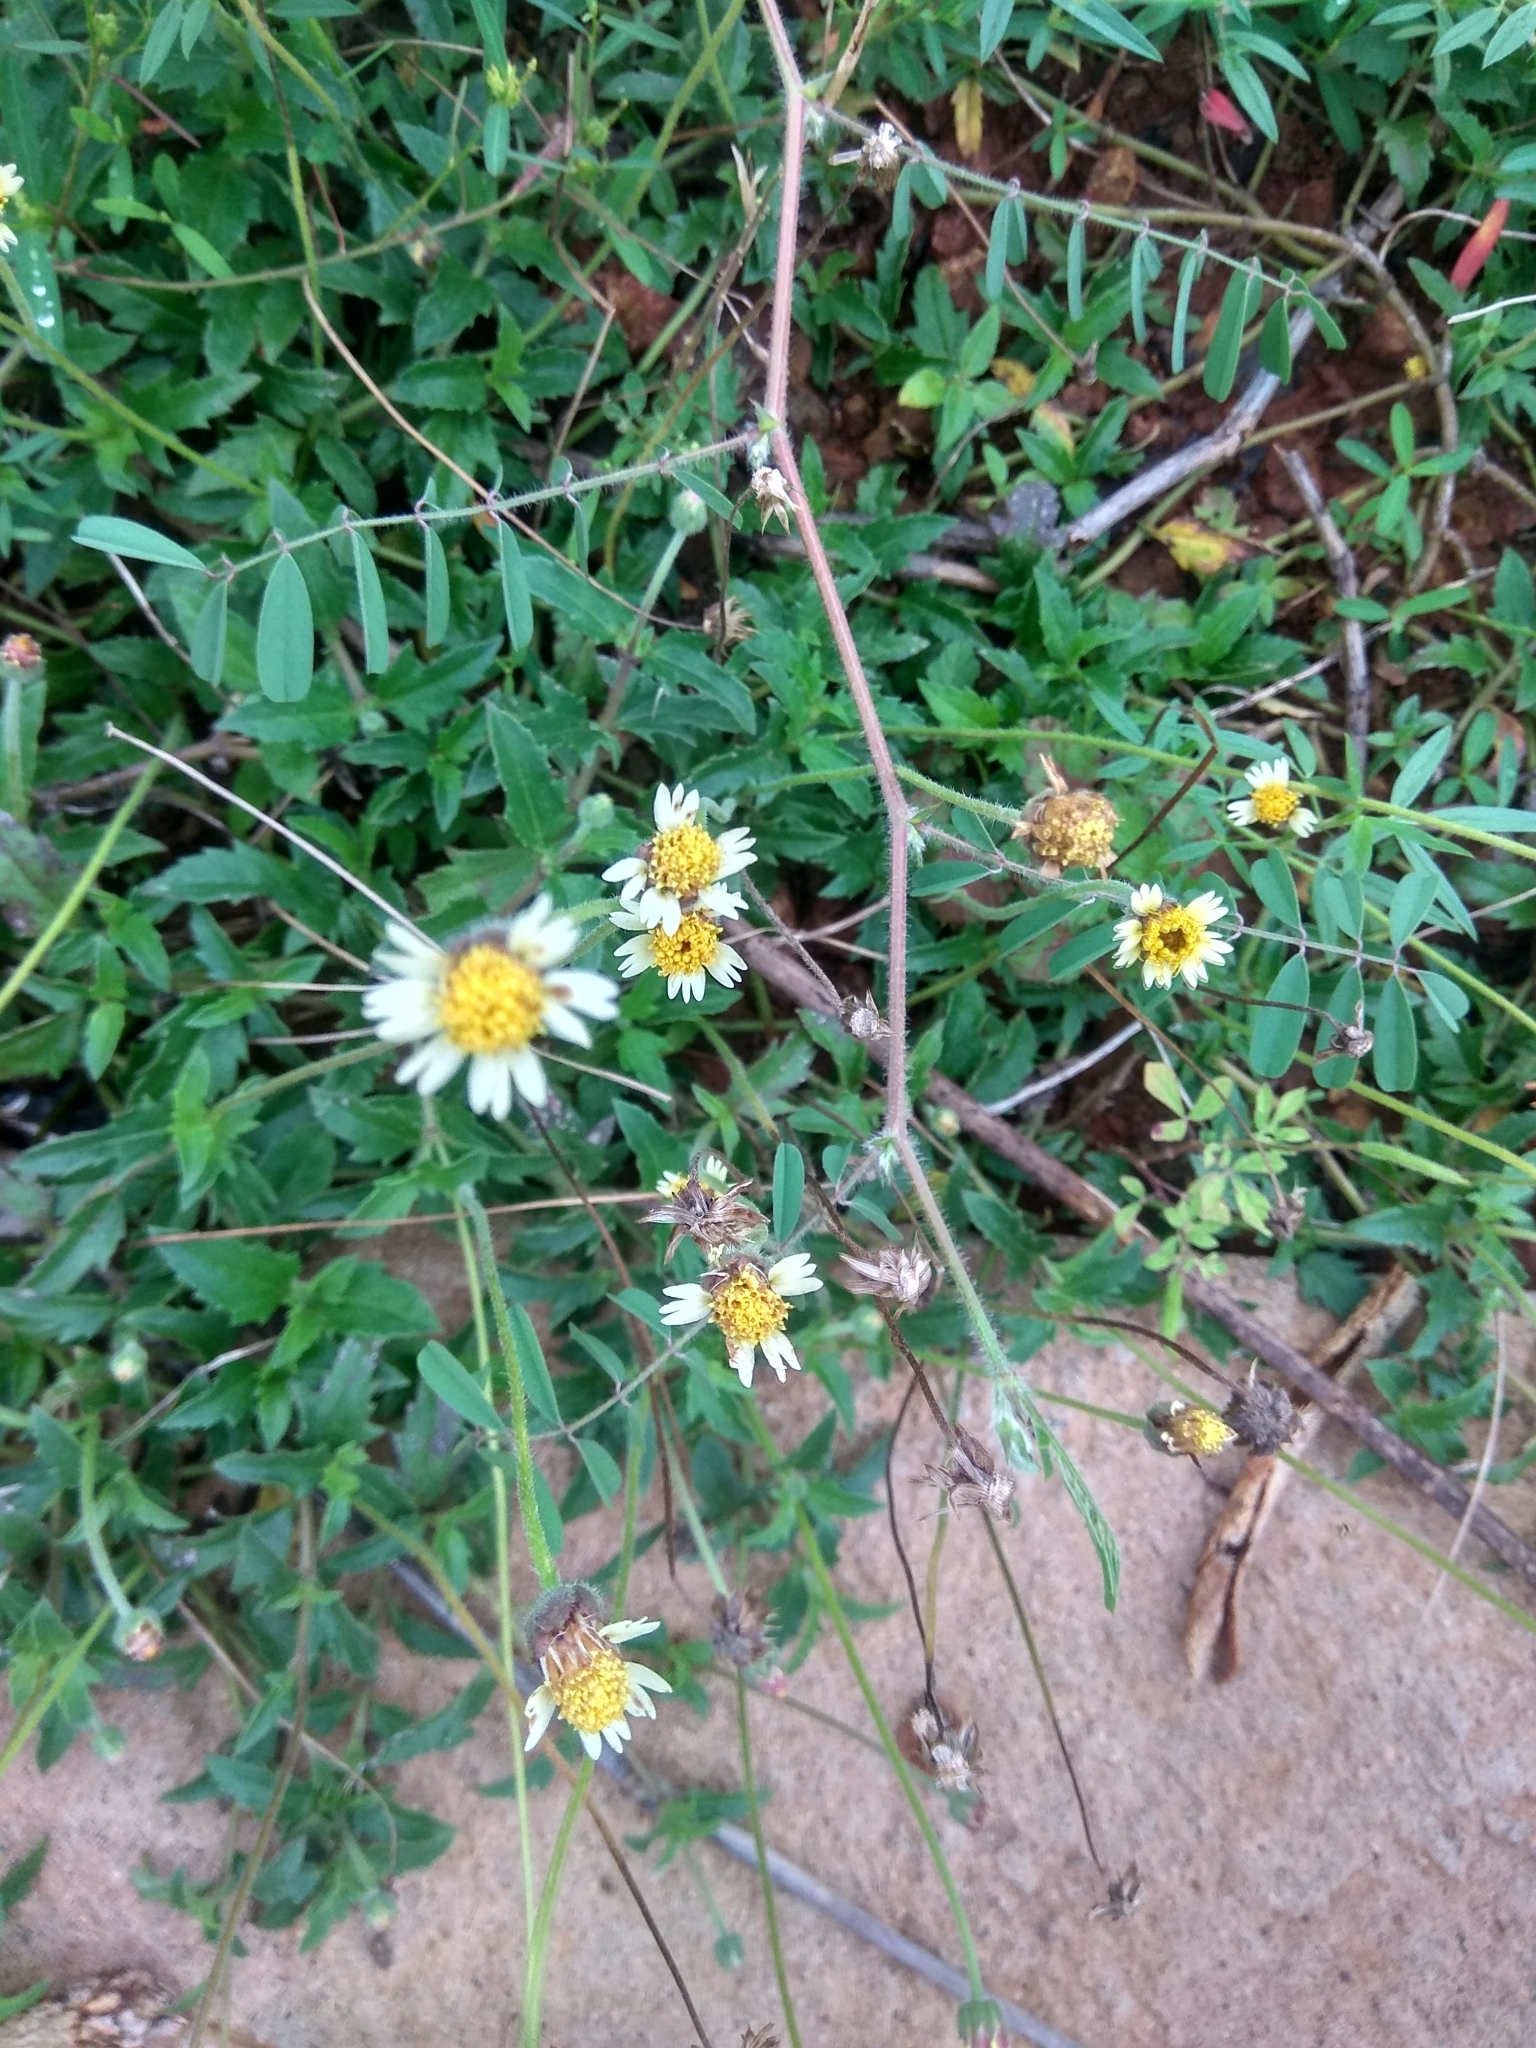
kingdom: Plantae
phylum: Tracheophyta
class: Magnoliopsida
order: Asterales
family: Asteraceae
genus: Tridax
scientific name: Tridax procumbens
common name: Coatbuttons
